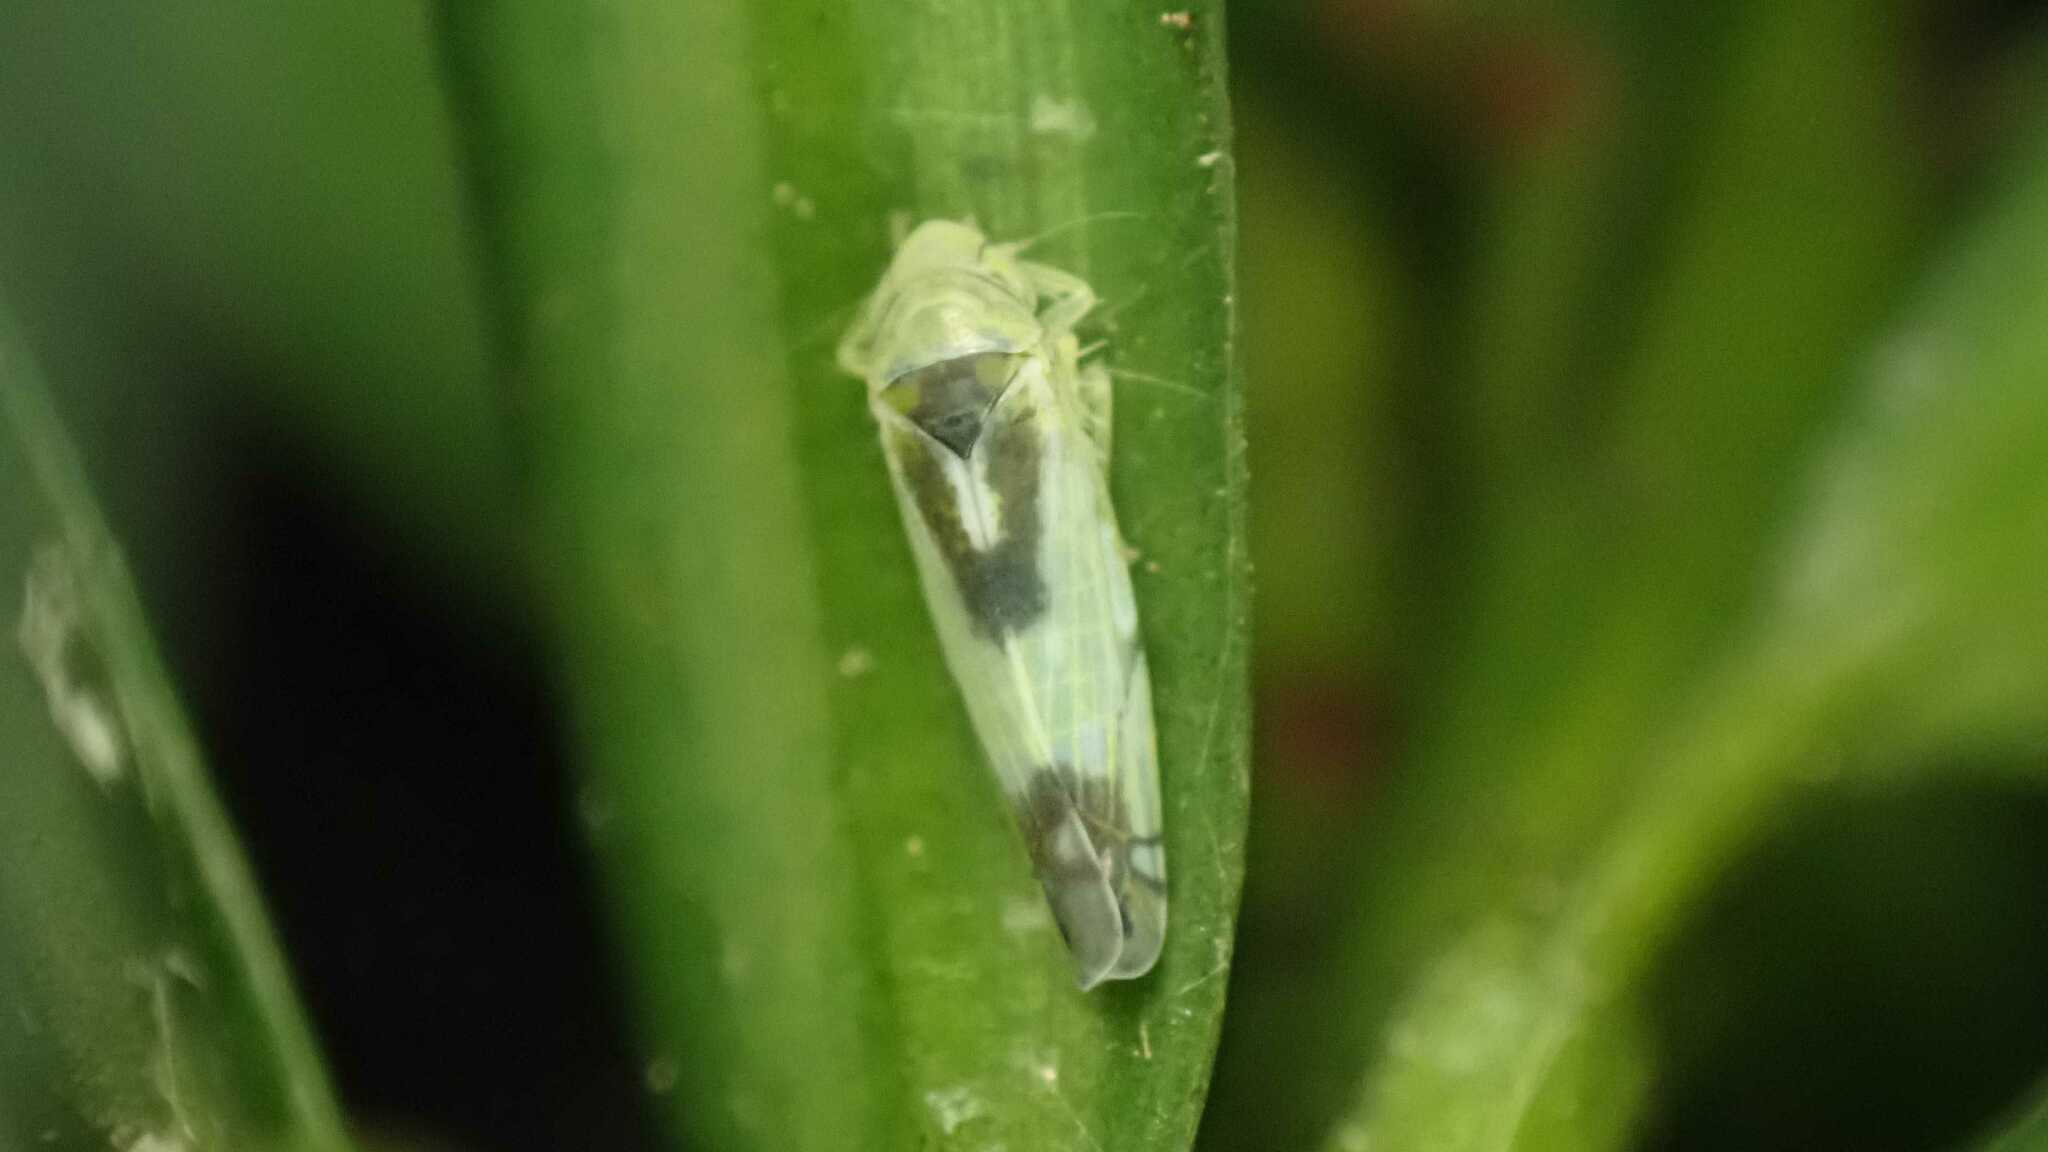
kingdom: Animalia
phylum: Arthropoda
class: Insecta
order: Hemiptera
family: Cicadellidae
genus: Zyginella
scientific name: Zyginella pulchra
